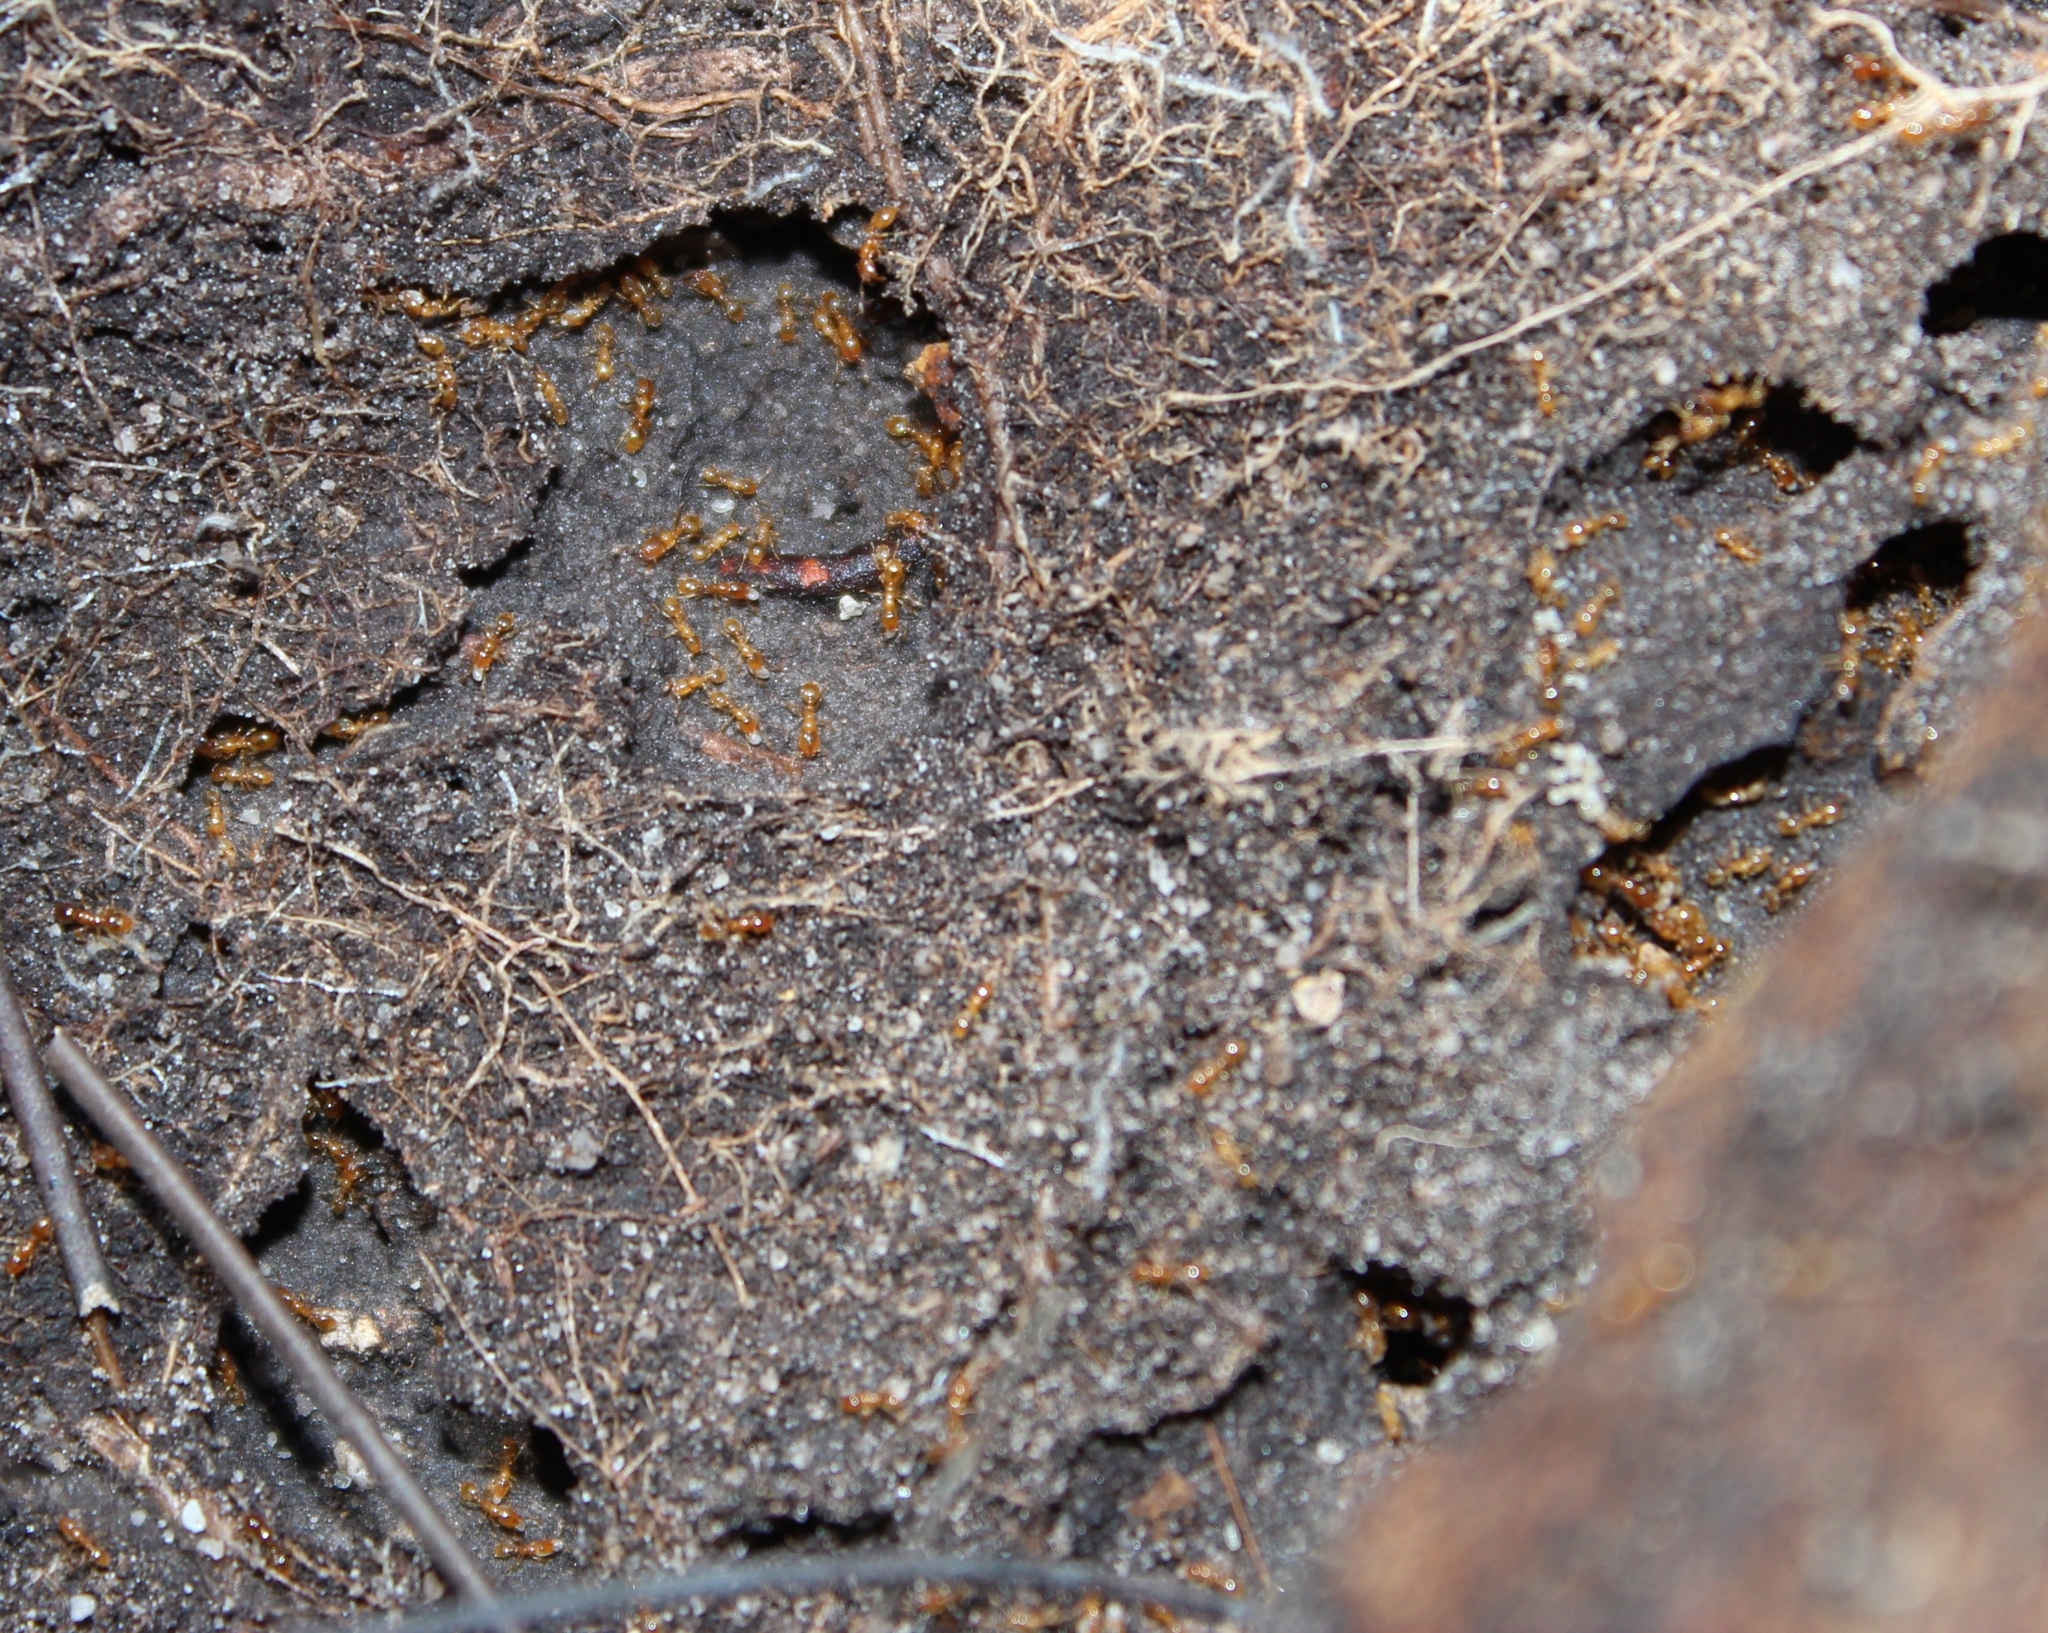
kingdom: Animalia
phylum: Arthropoda
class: Insecta
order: Hymenoptera
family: Formicidae
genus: Solenopsis
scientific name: Solenopsis punctaticeps
